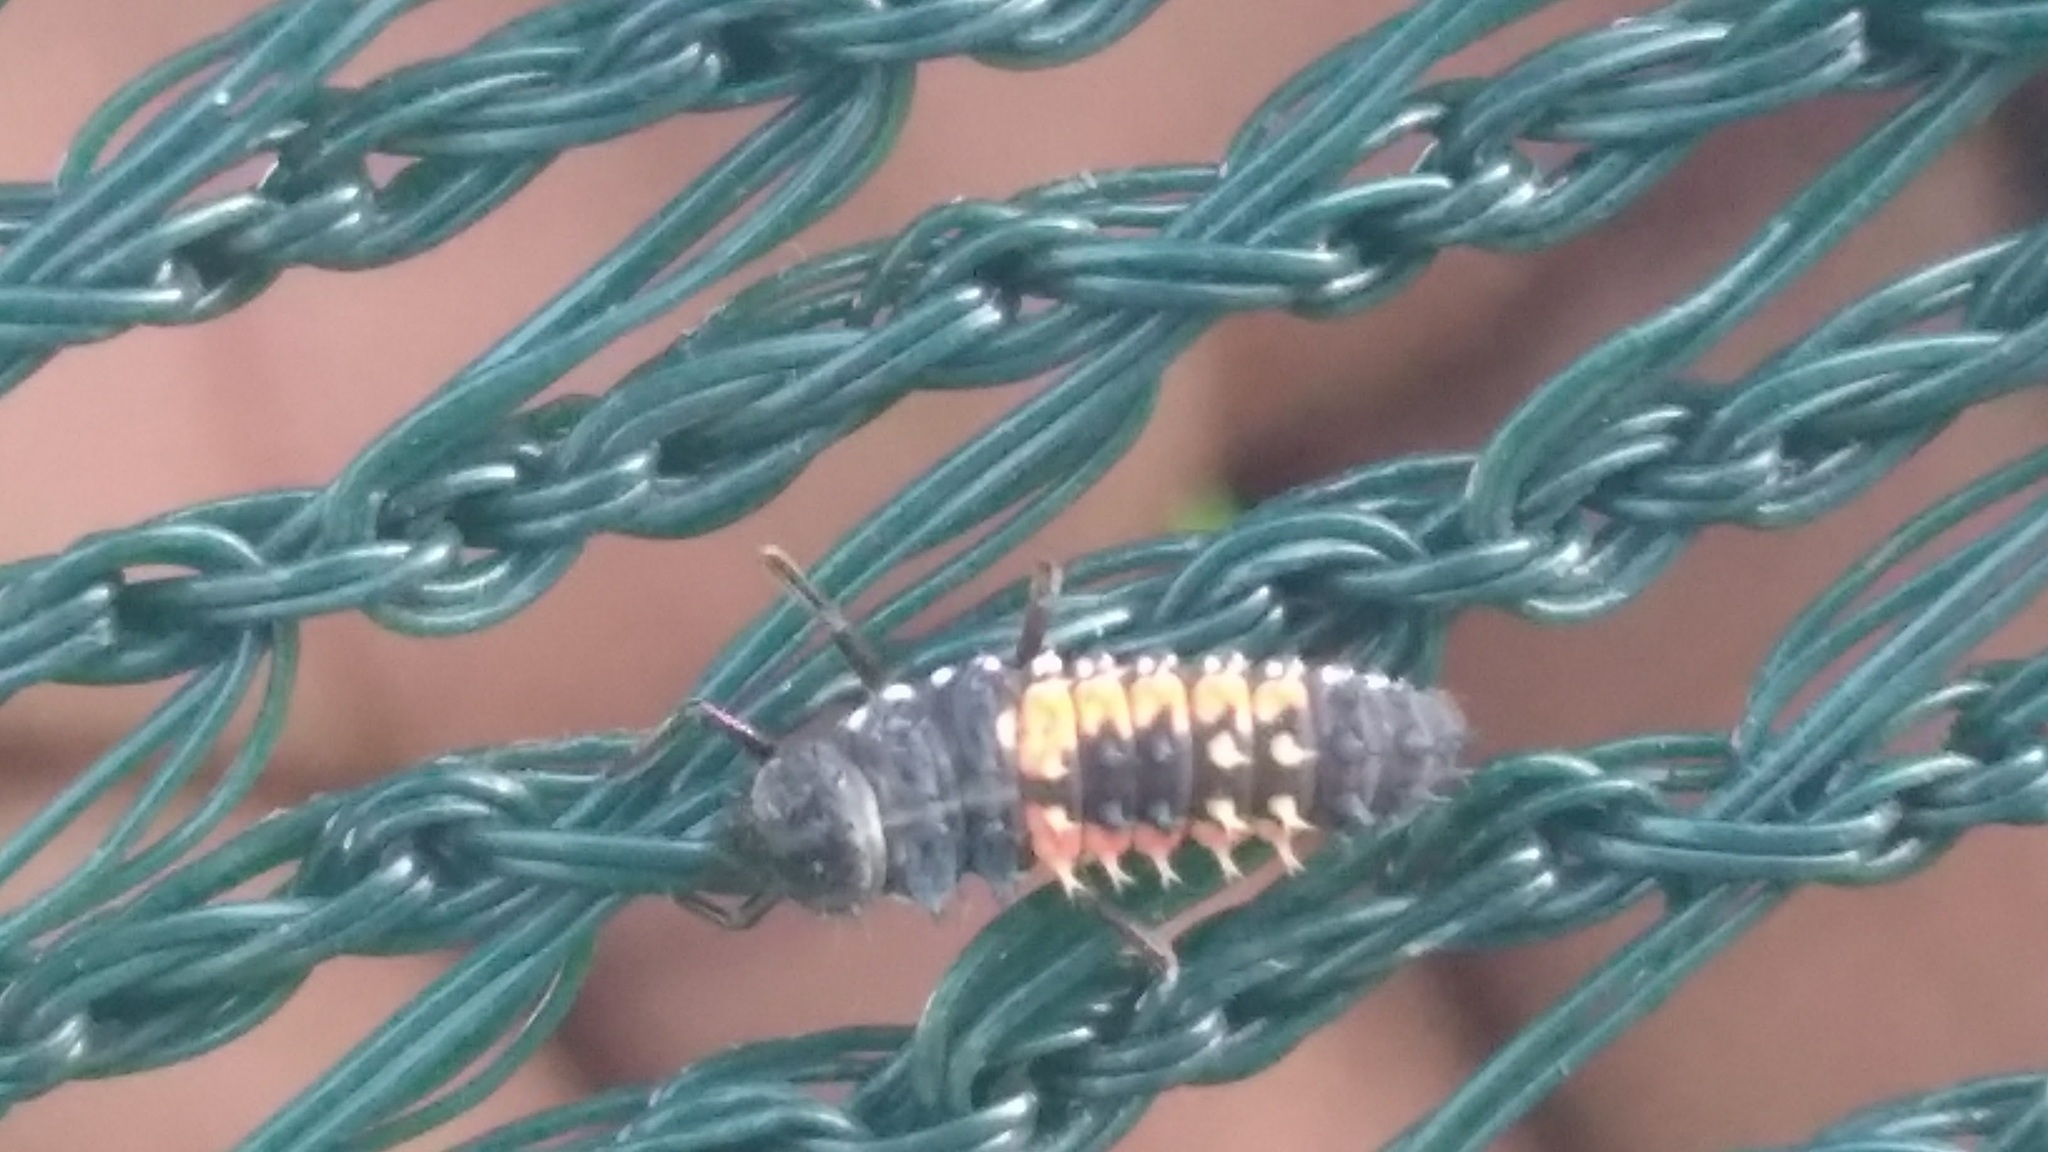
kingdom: Animalia
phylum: Arthropoda
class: Insecta
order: Coleoptera
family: Coccinellidae
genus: Harmonia
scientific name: Harmonia axyridis
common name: Harlequin ladybird
